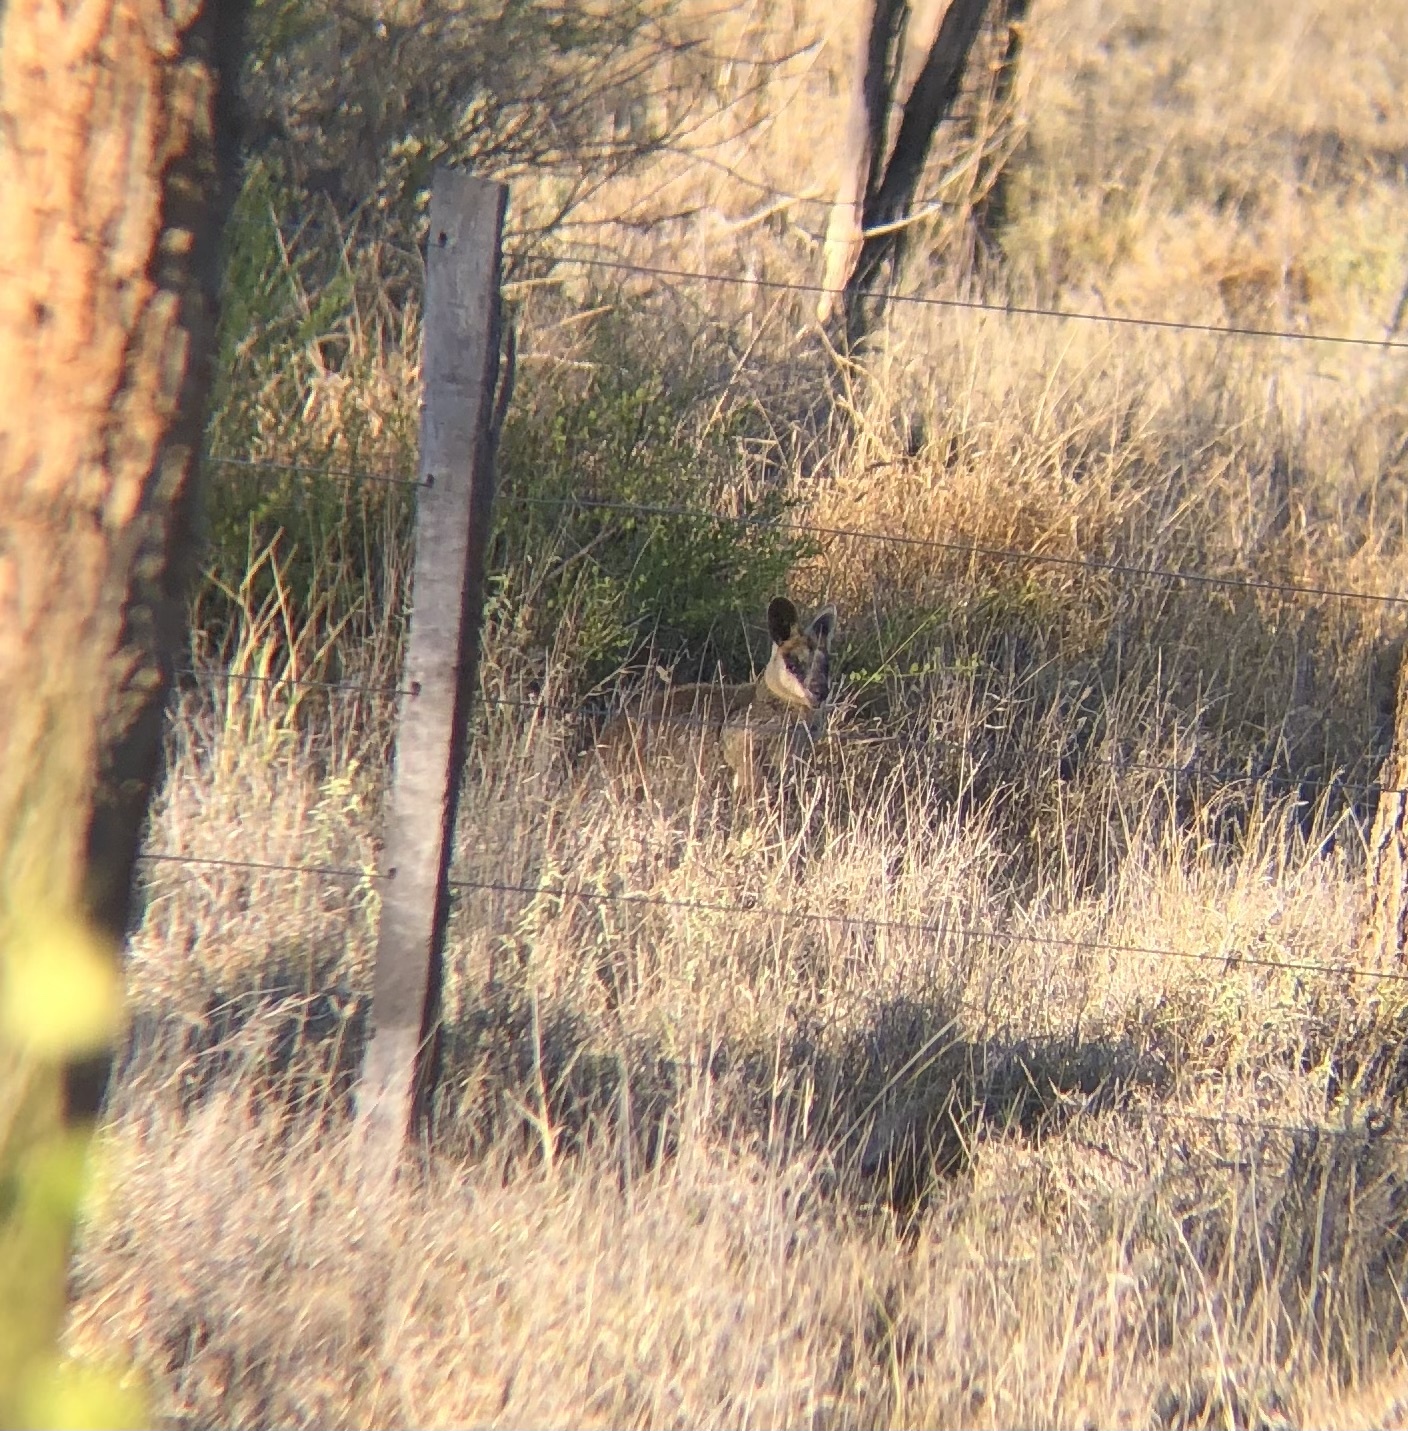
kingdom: Animalia
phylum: Chordata
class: Mammalia
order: Diprotodontia
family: Macropodidae
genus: Wallabia
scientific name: Wallabia bicolor
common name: Swamp wallaby
